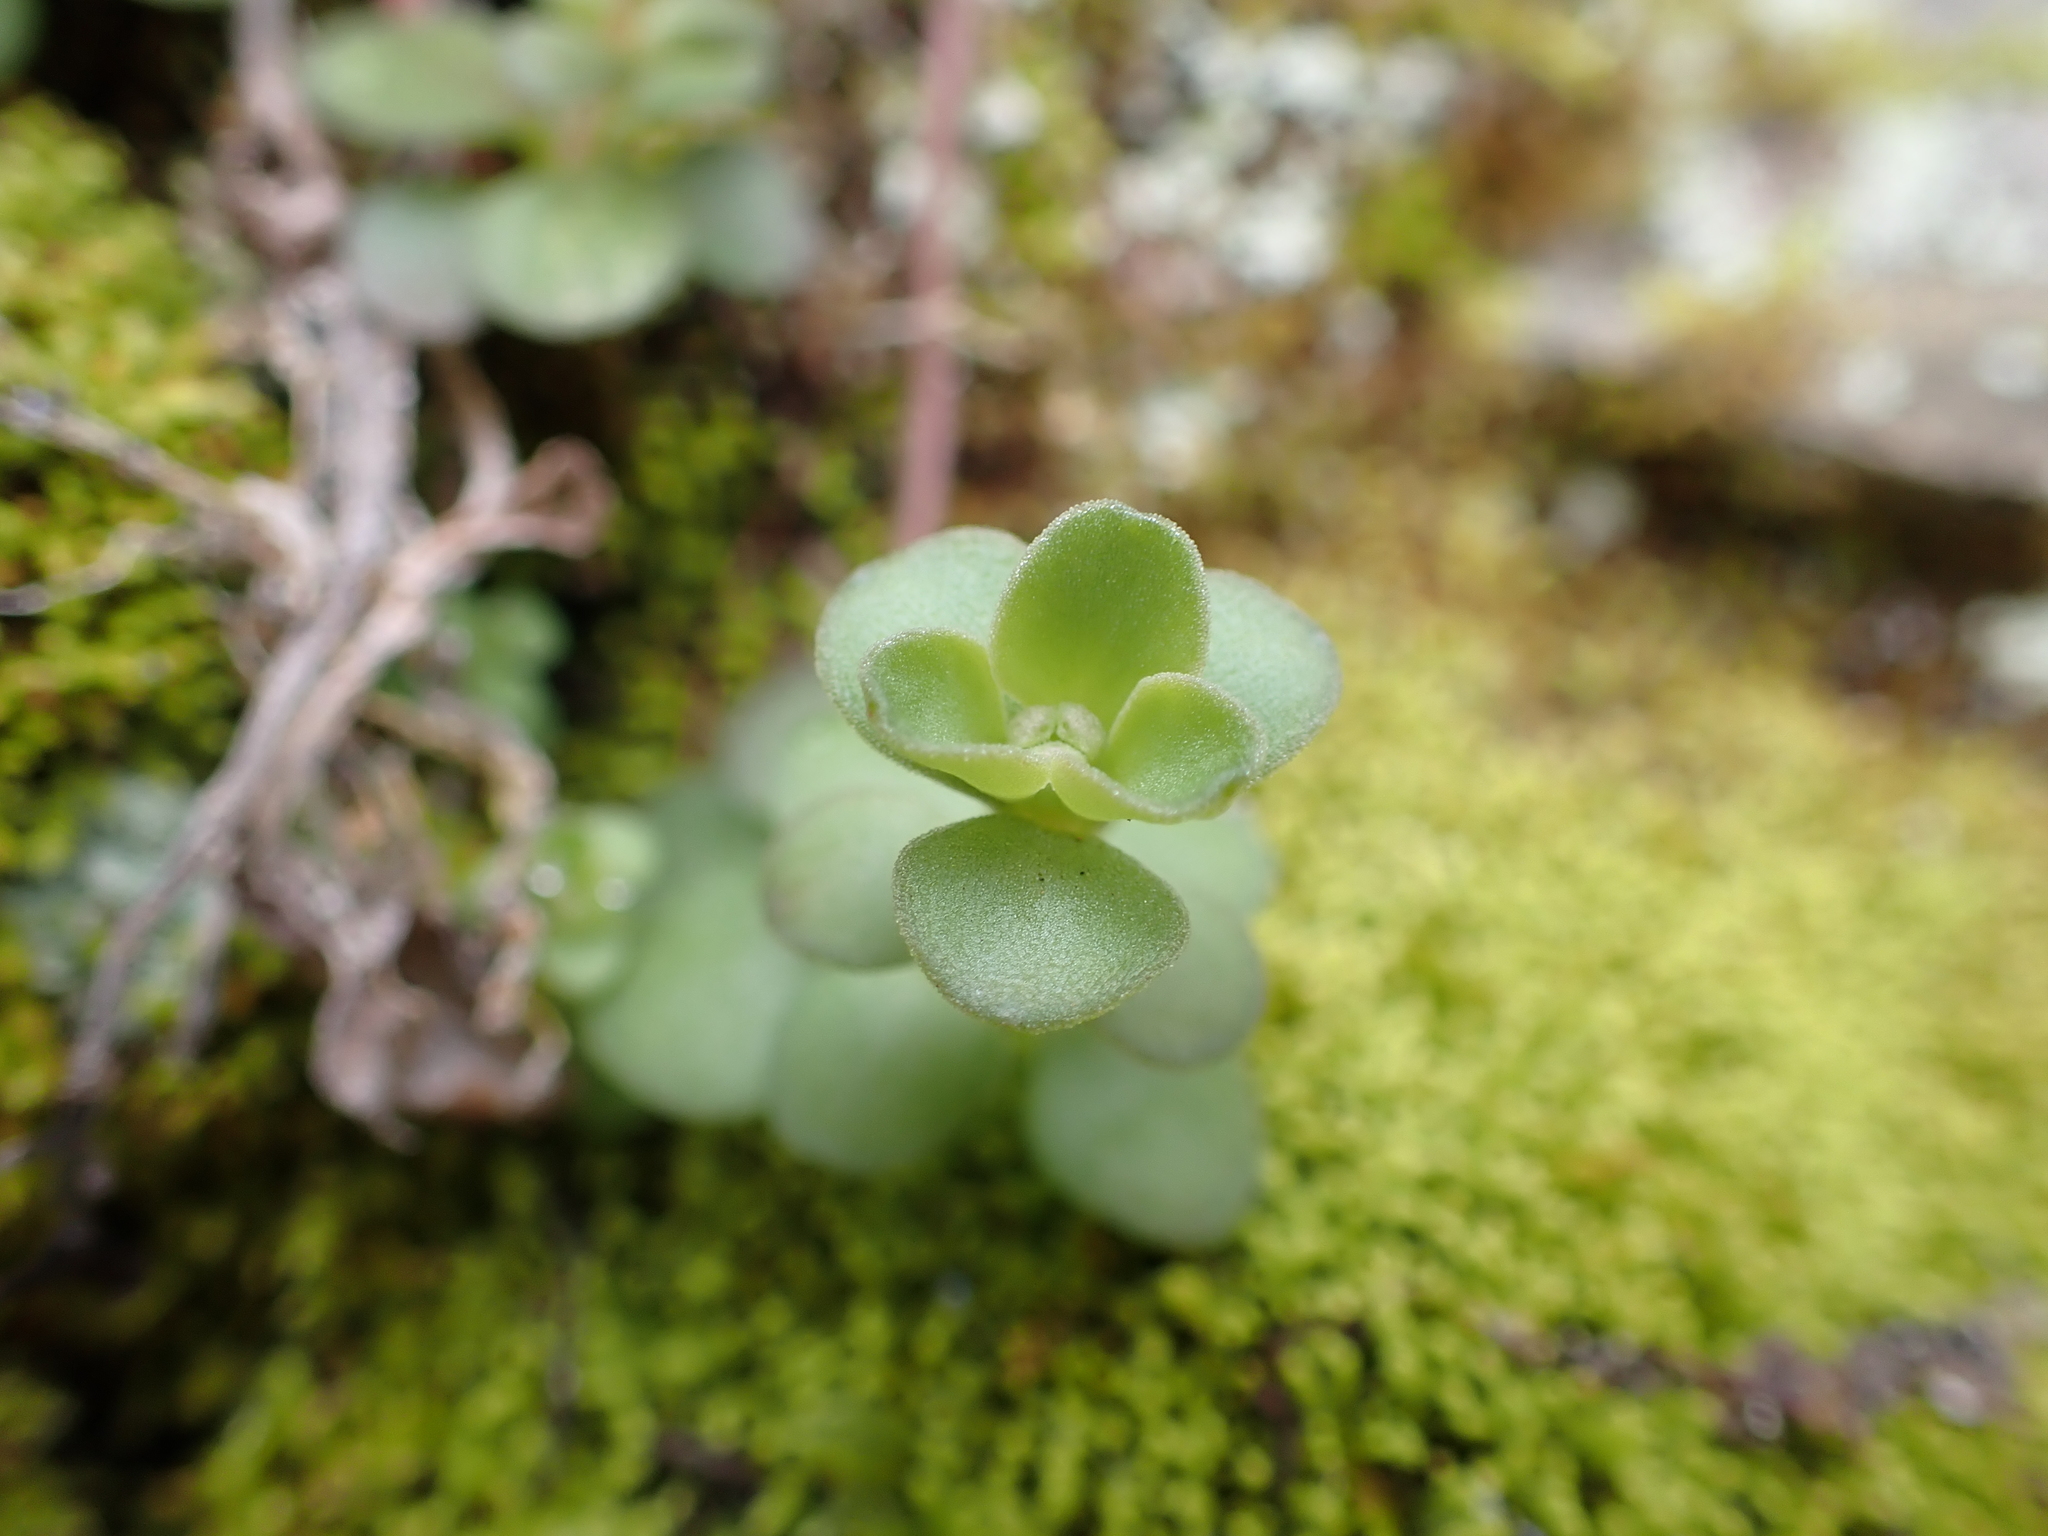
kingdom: Plantae
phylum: Tracheophyta
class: Magnoliopsida
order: Saxifragales
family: Crassulaceae
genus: Sedum
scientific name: Sedum ternatum
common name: Wild stonecrop
